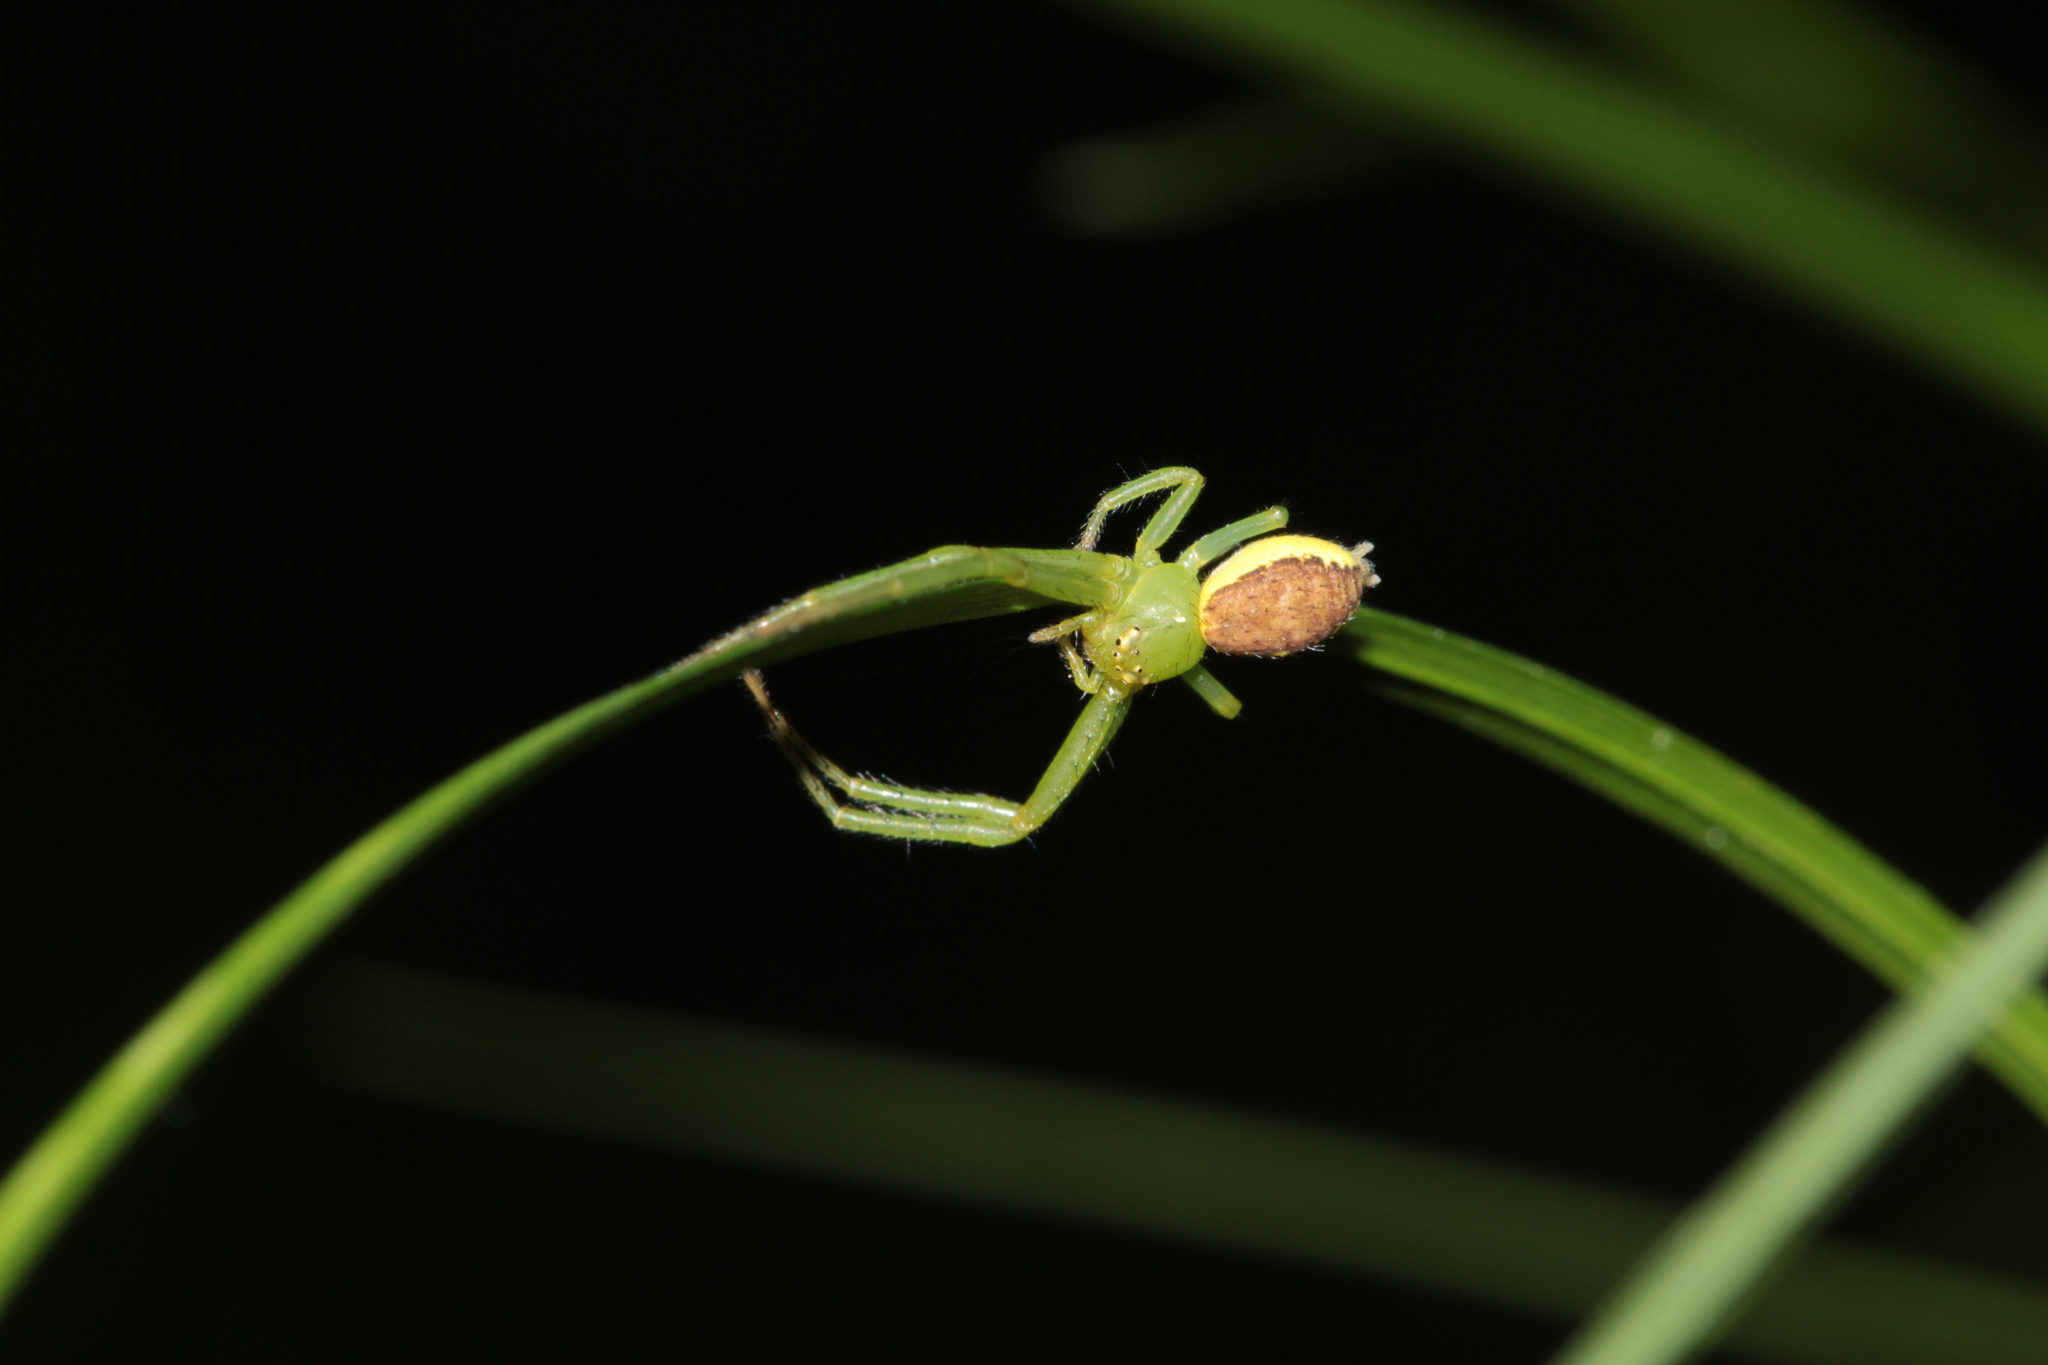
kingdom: Animalia
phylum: Arthropoda
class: Arachnida
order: Araneae
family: Thomisidae
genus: Diaea
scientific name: Diaea dorsata
